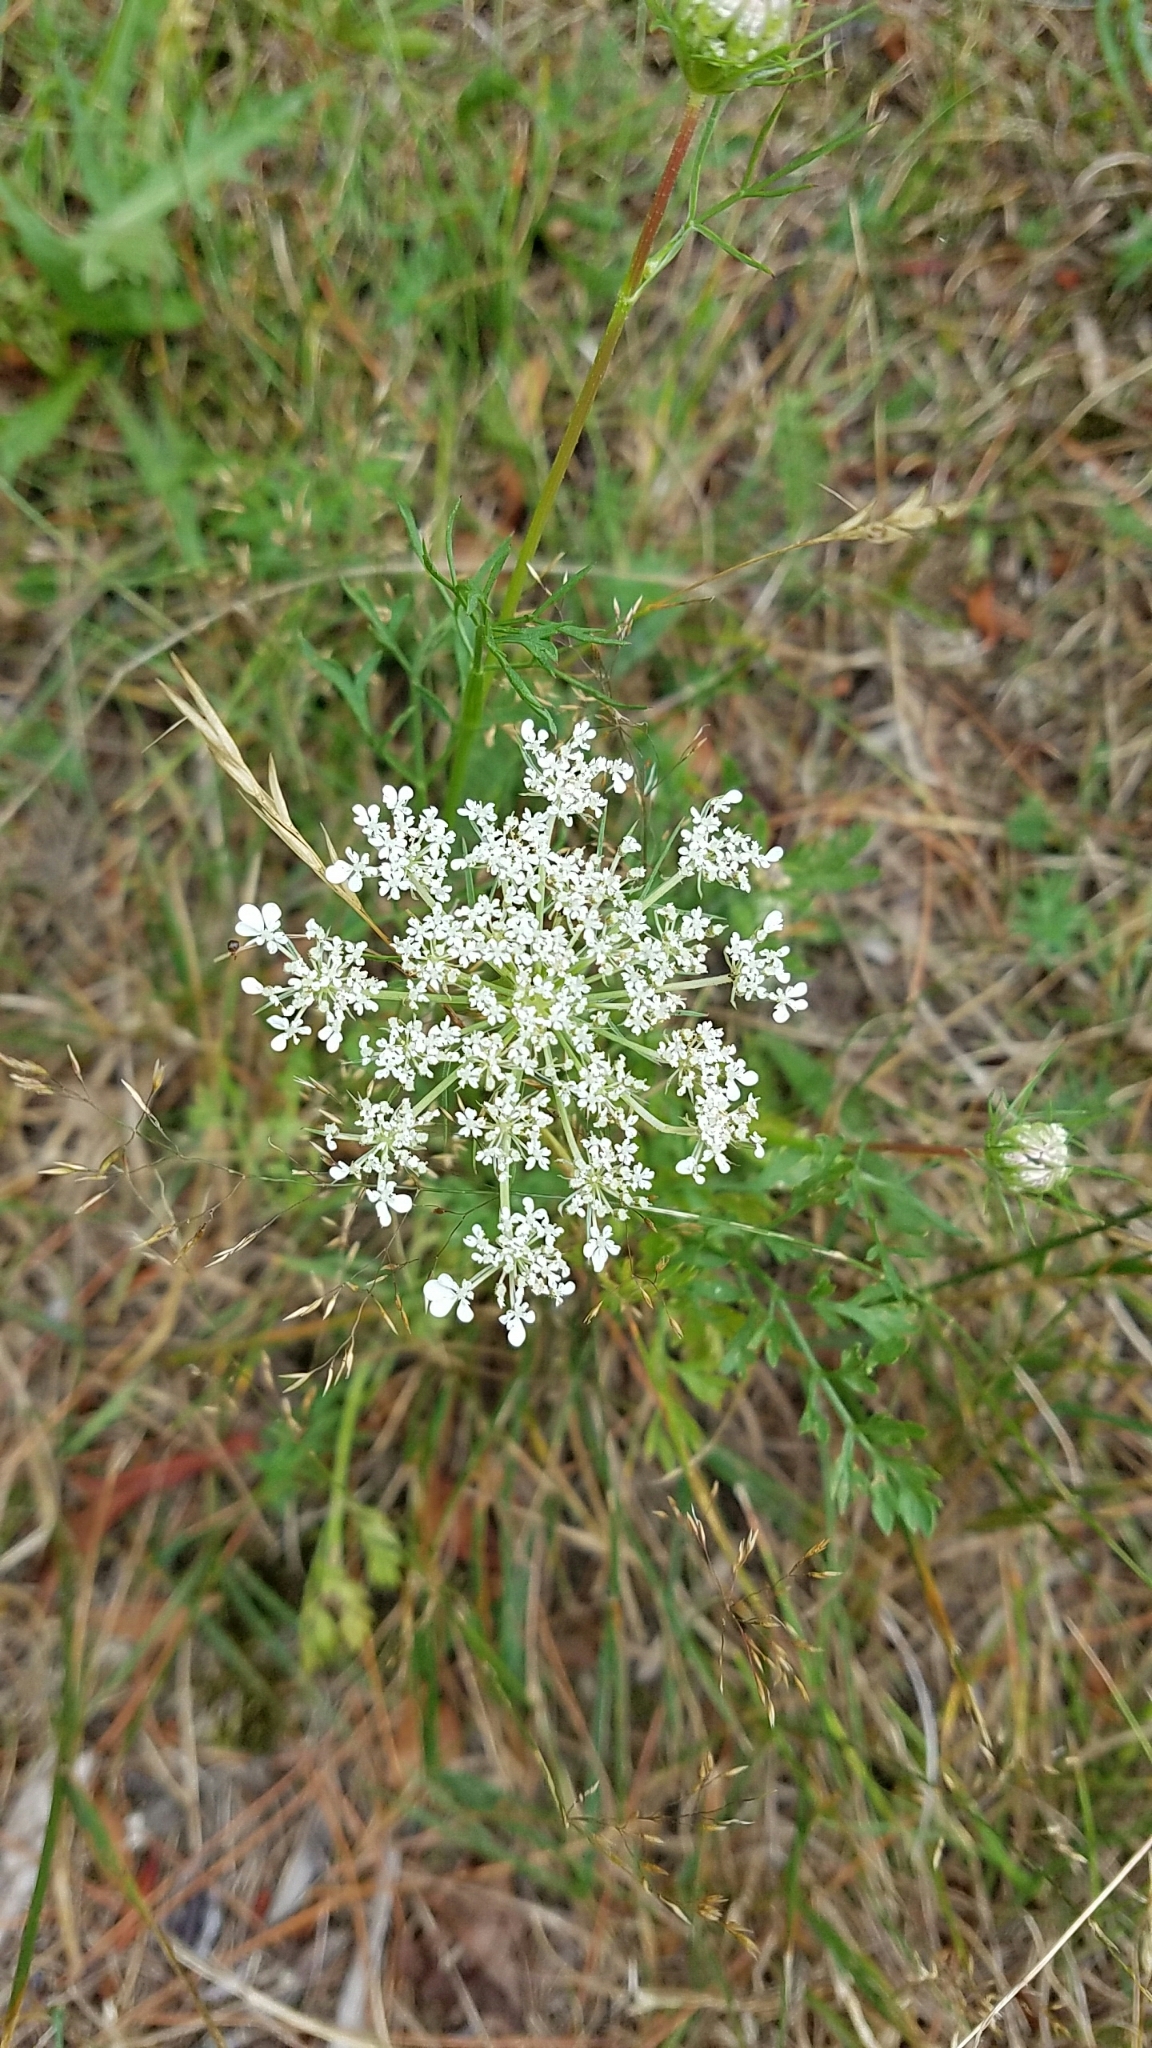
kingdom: Plantae
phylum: Tracheophyta
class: Magnoliopsida
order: Apiales
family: Apiaceae
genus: Daucus
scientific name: Daucus carota
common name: Wild carrot
